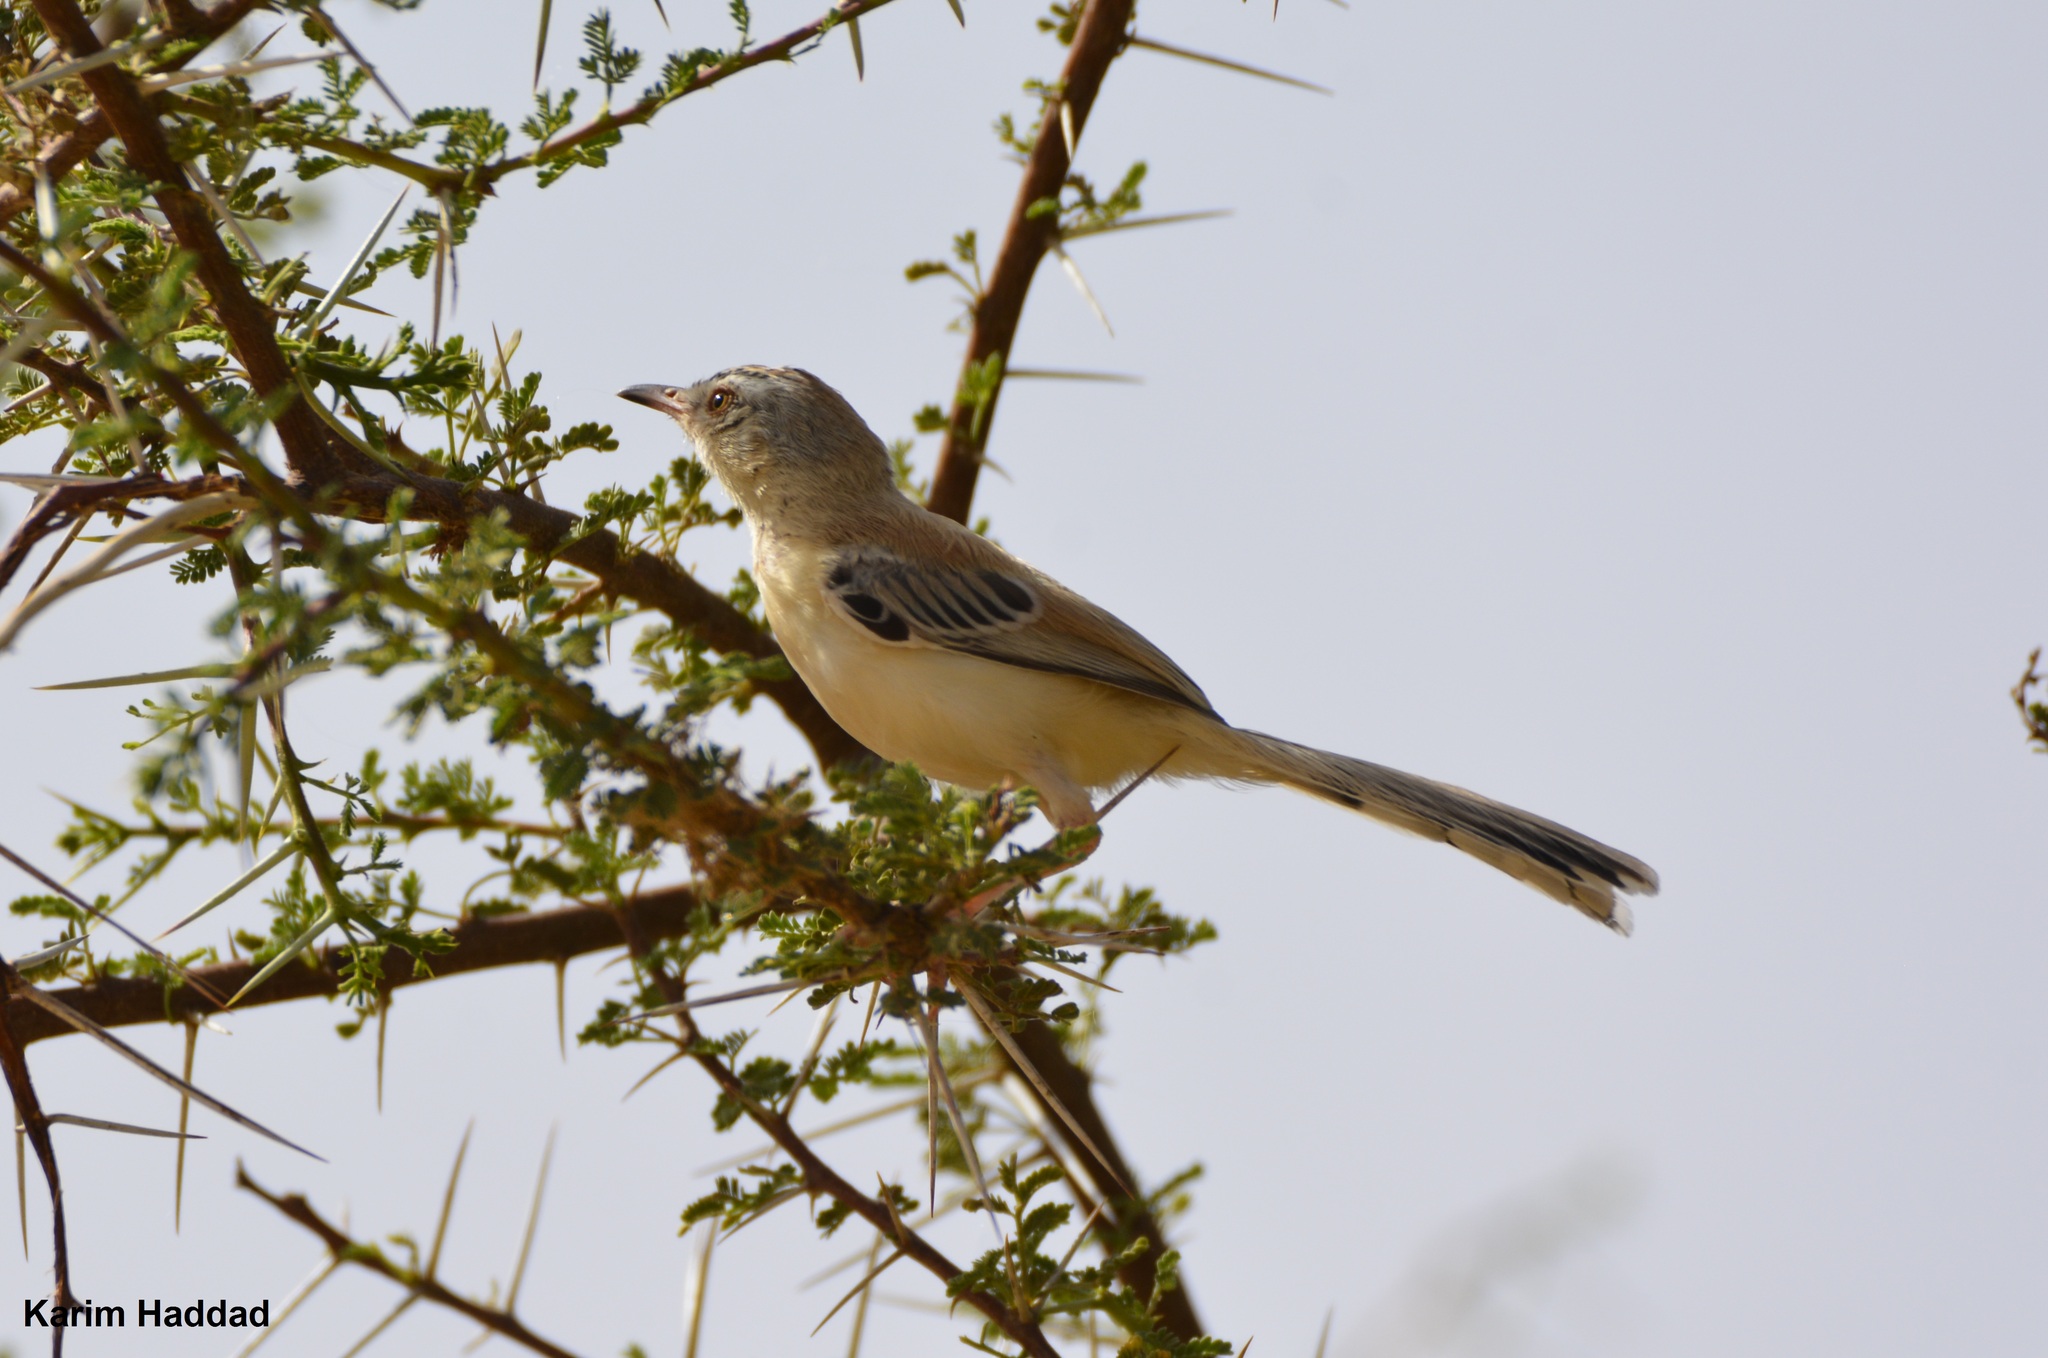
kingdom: Animalia
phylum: Chordata
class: Aves
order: Passeriformes
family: Cisticolidae
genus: Spiloptila
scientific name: Spiloptila clamans
